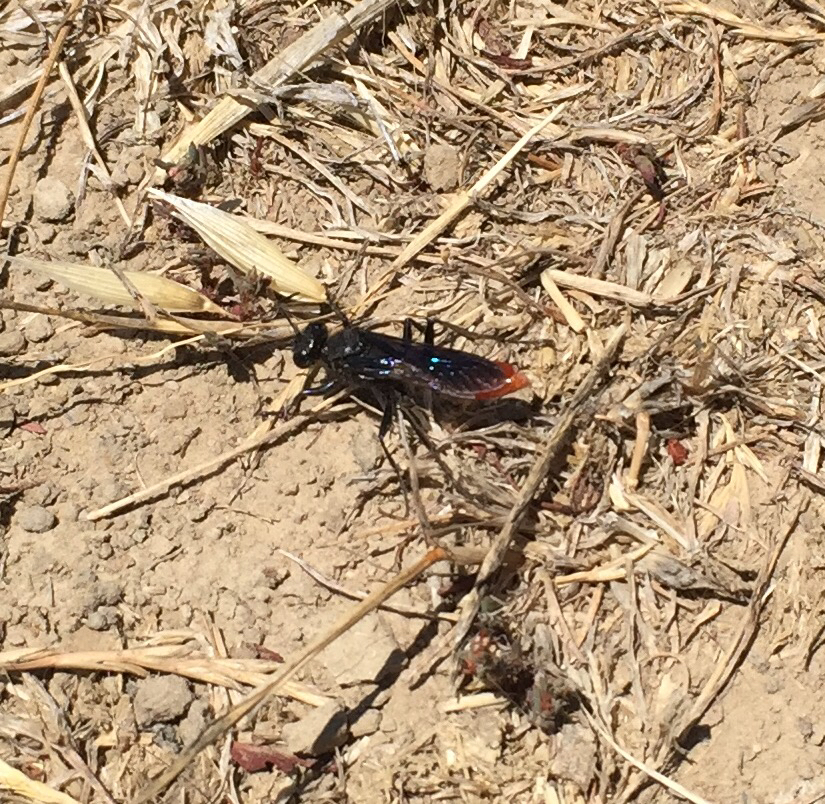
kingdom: Animalia
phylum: Arthropoda
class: Insecta
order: Hymenoptera
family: Sphecidae
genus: Sphex
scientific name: Sphex lucae
